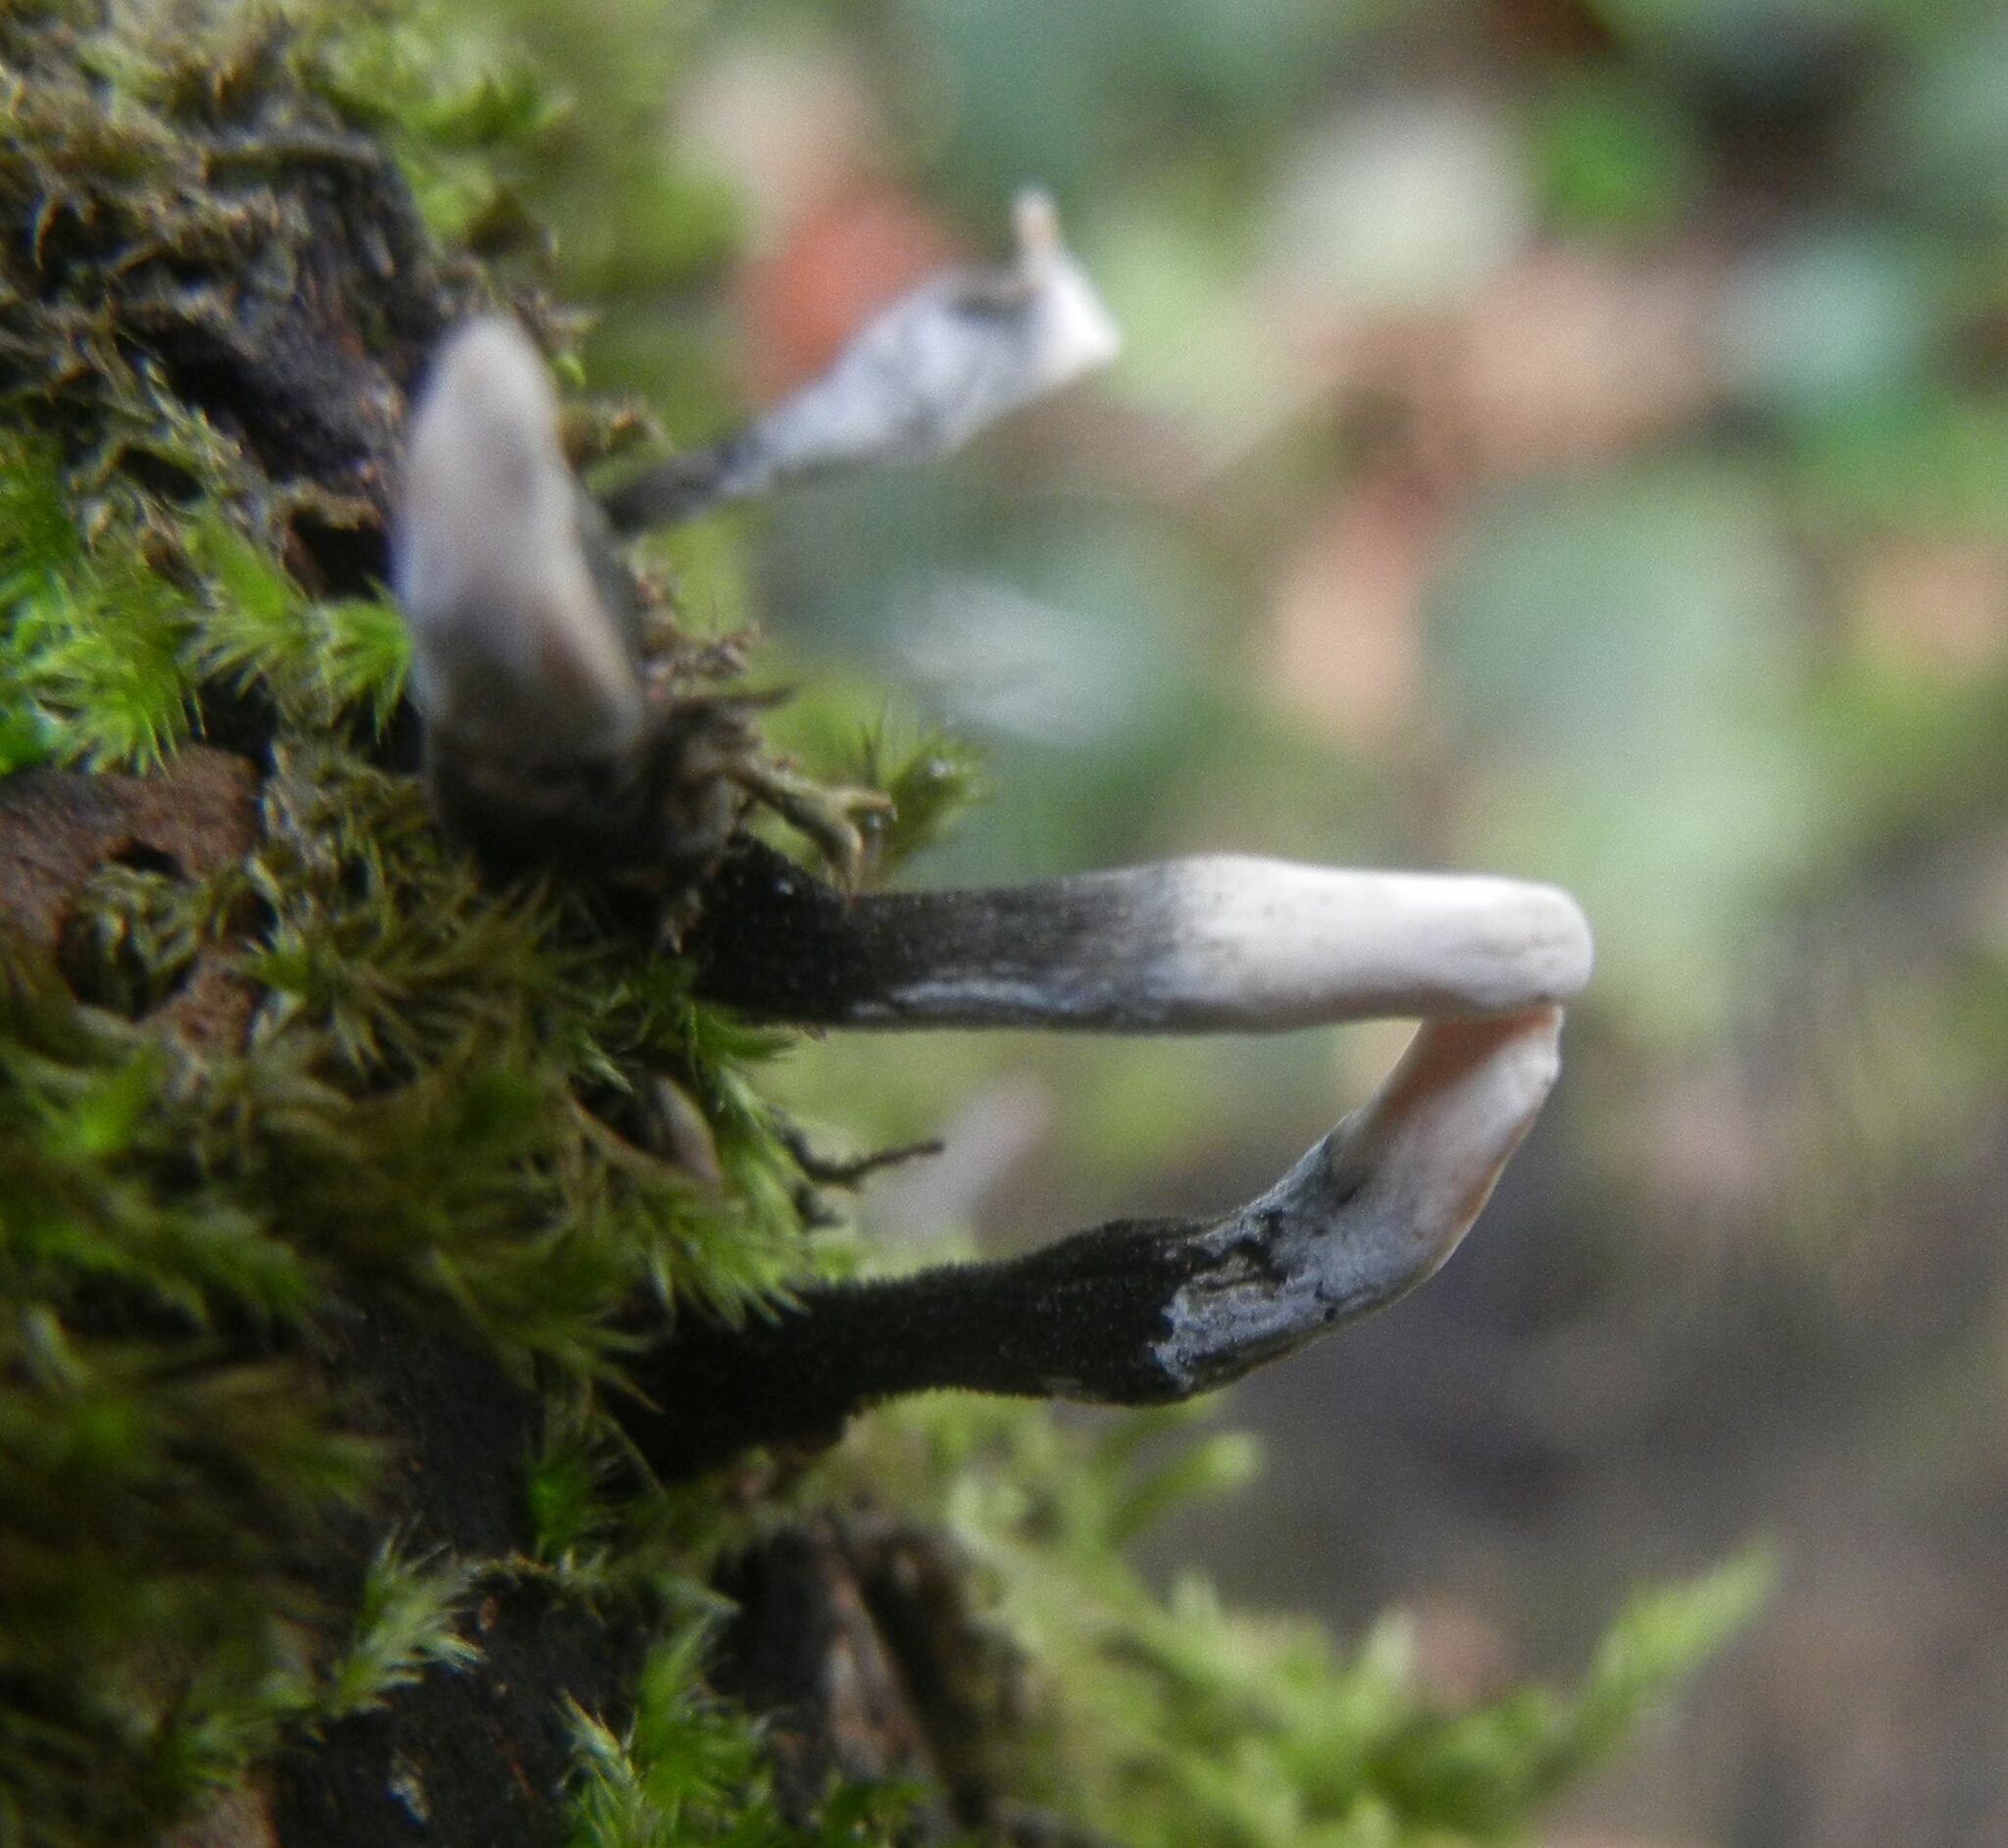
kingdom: Fungi
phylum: Ascomycota
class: Sordariomycetes
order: Xylariales
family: Xylariaceae
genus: Xylaria
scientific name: Xylaria hypoxylon
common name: Candle-snuff fungus
